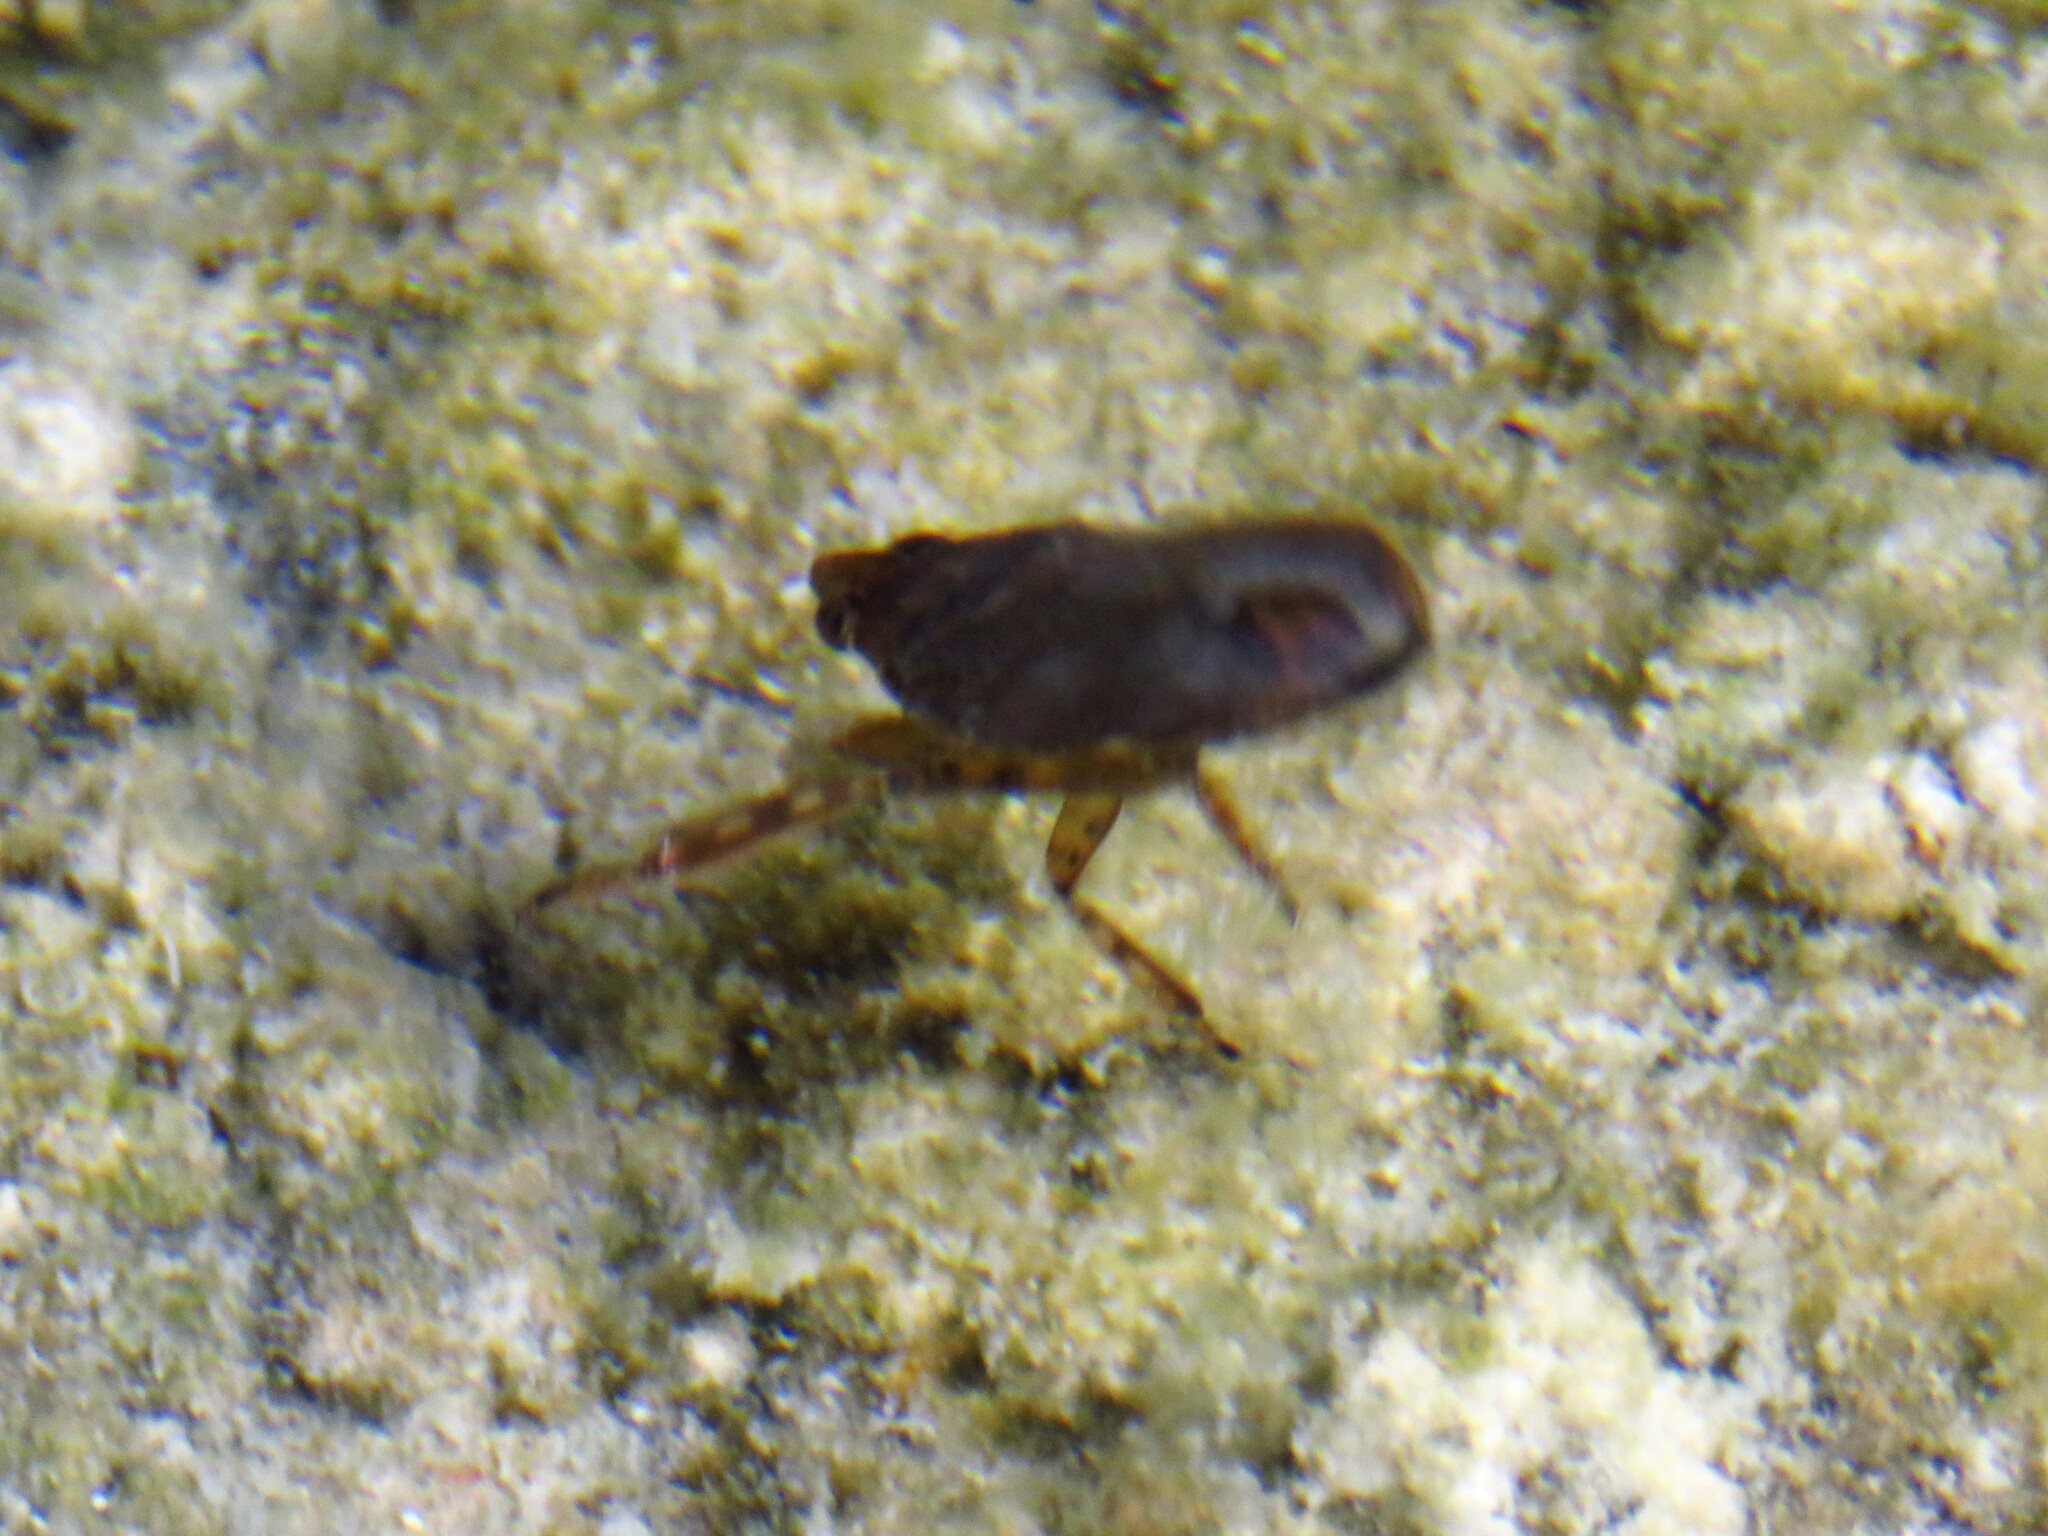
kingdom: Animalia
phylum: Arthropoda
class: Insecta
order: Hemiptera
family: Belostomatidae
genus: Belostoma
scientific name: Belostoma
